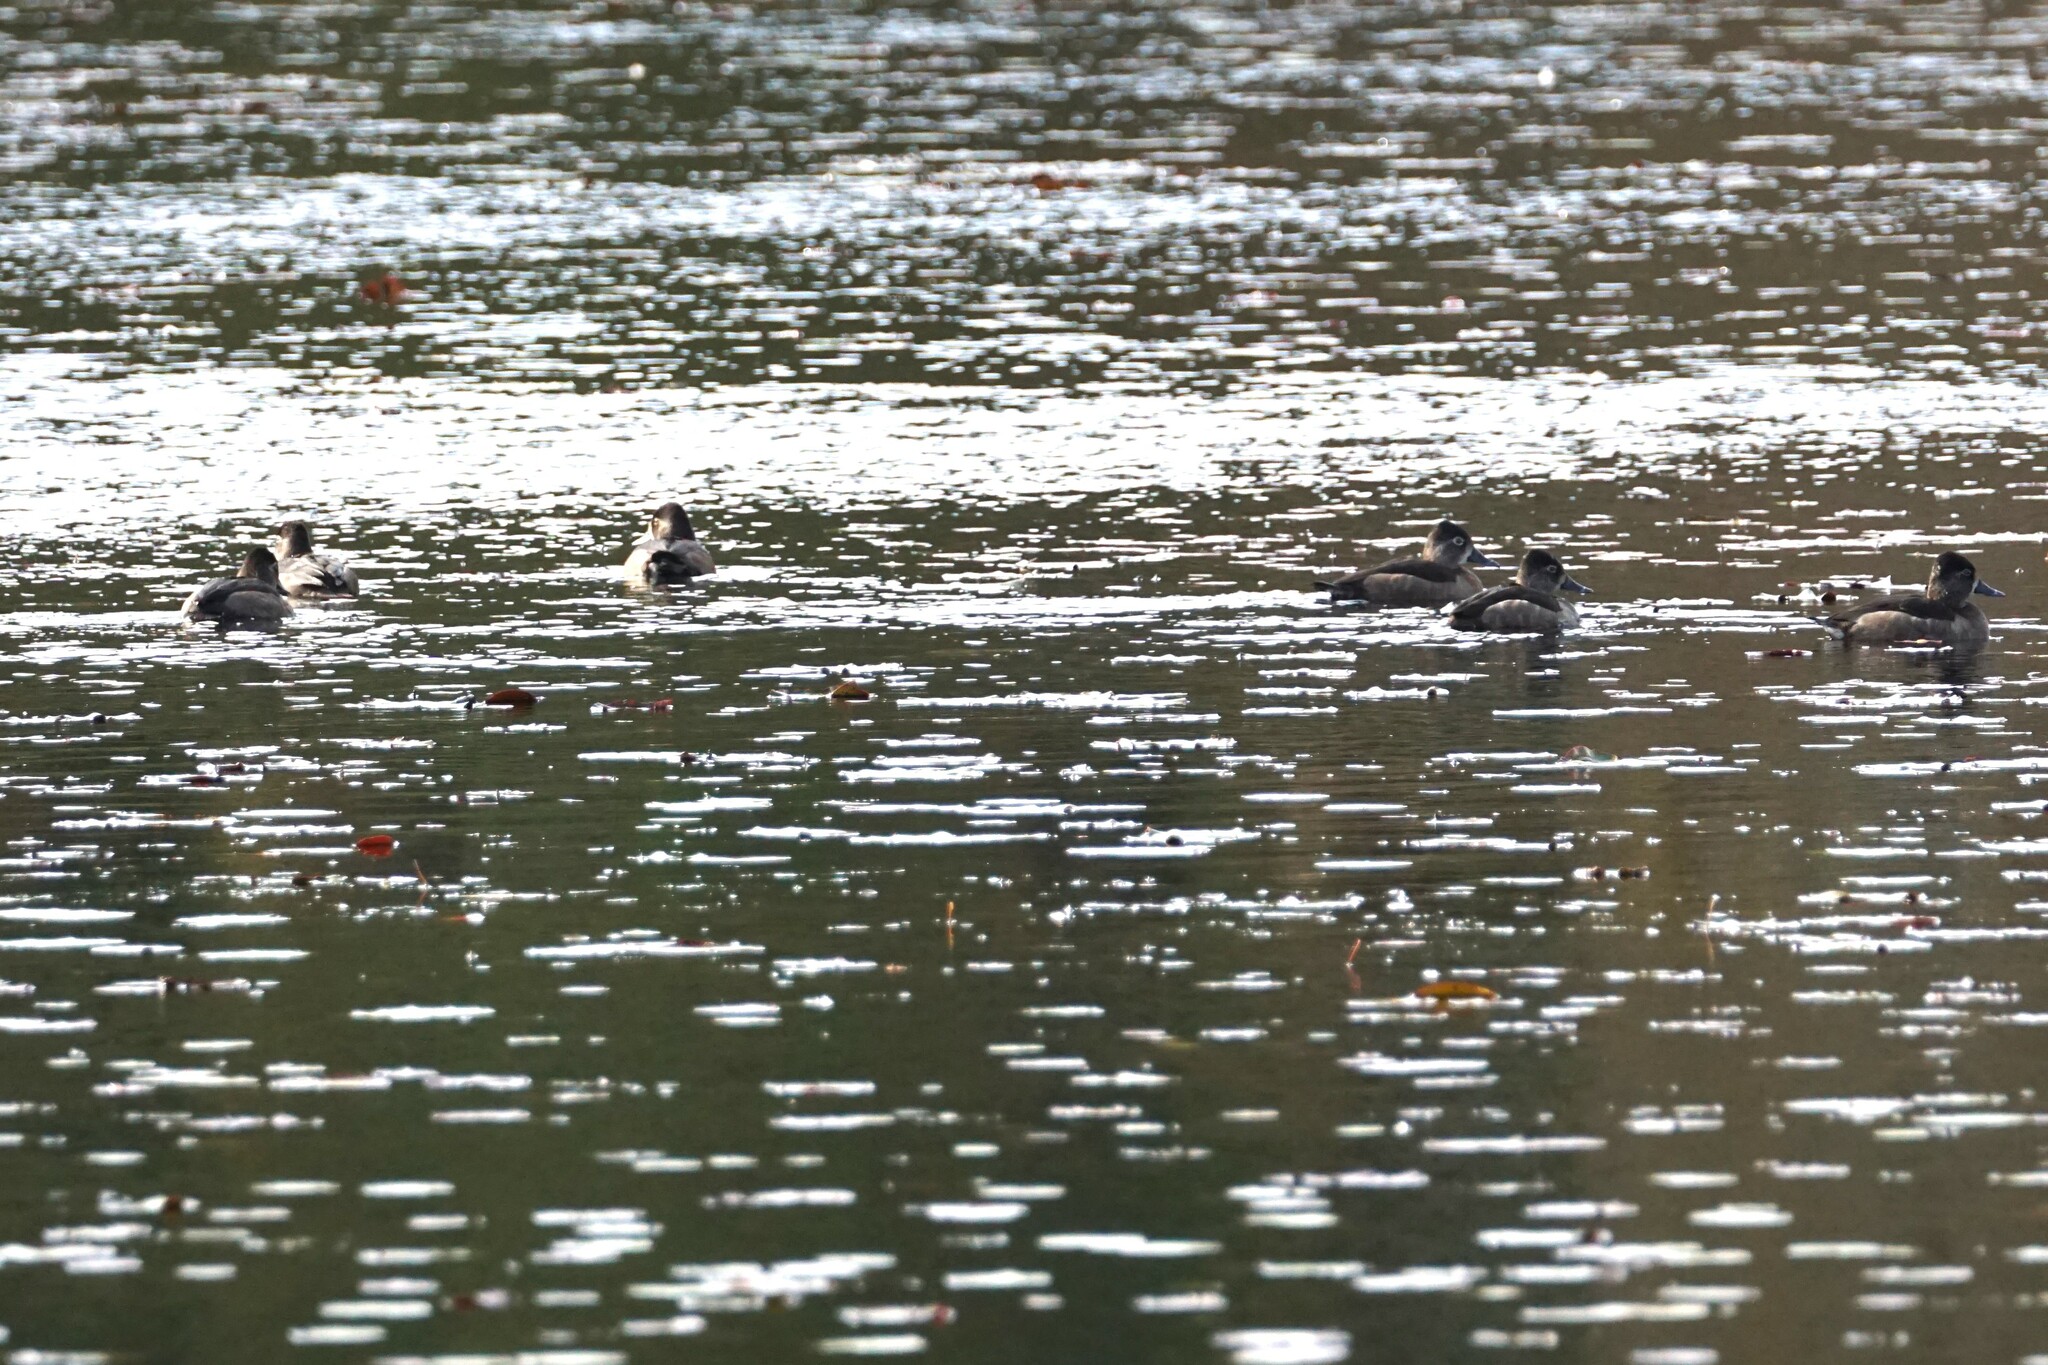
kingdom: Animalia
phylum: Chordata
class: Aves
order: Anseriformes
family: Anatidae
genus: Aythya
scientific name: Aythya collaris
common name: Ring-necked duck
